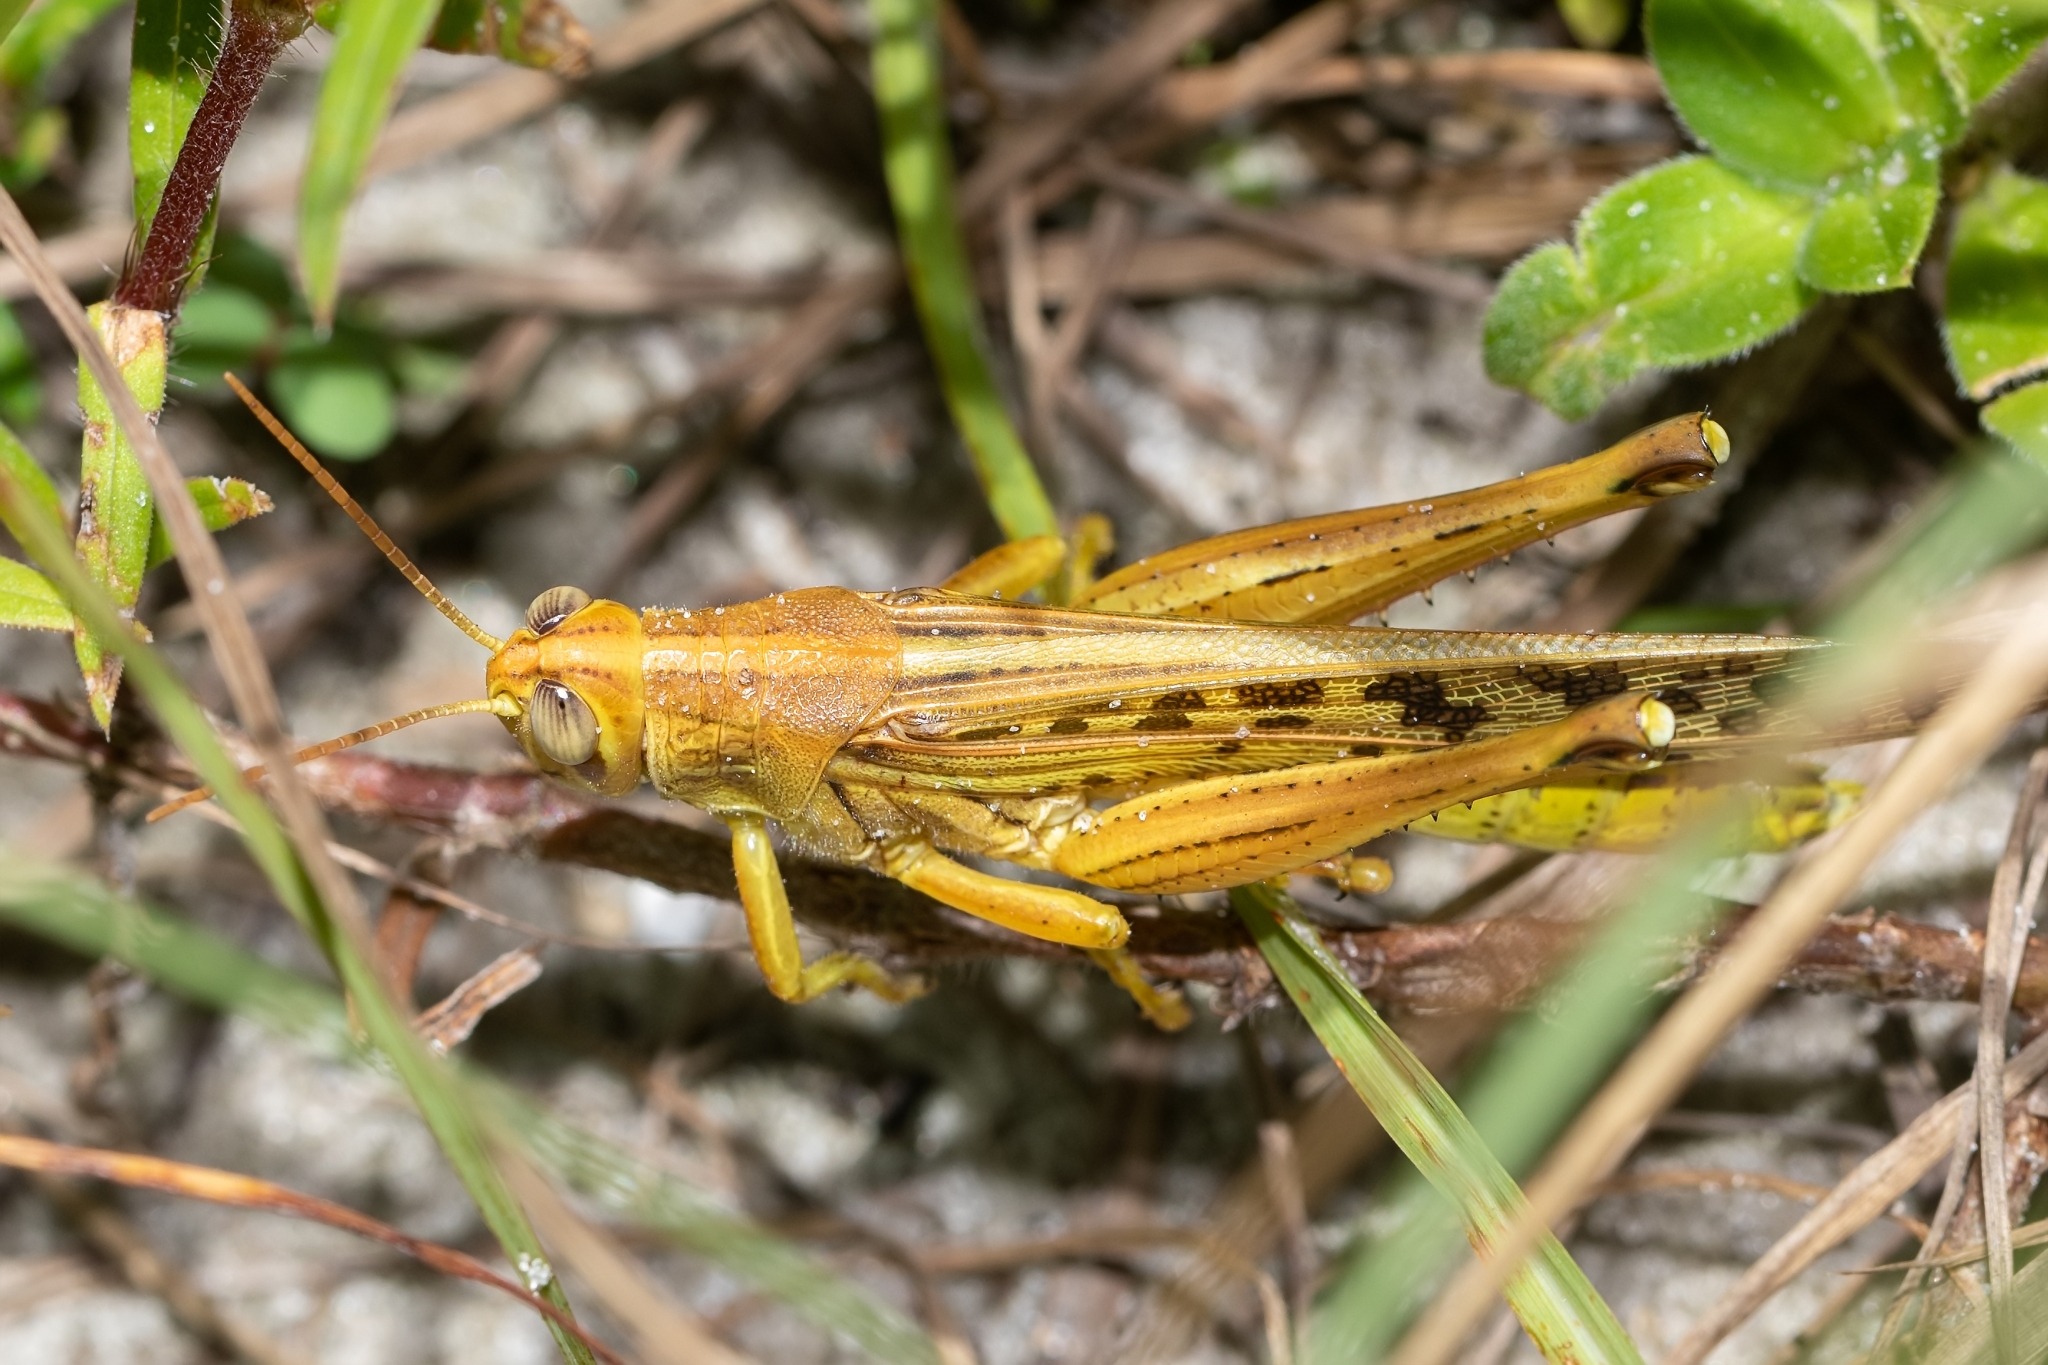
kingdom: Animalia
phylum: Arthropoda
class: Insecta
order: Orthoptera
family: Acrididae
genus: Schistocerca
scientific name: Schistocerca americana
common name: American bird locust
